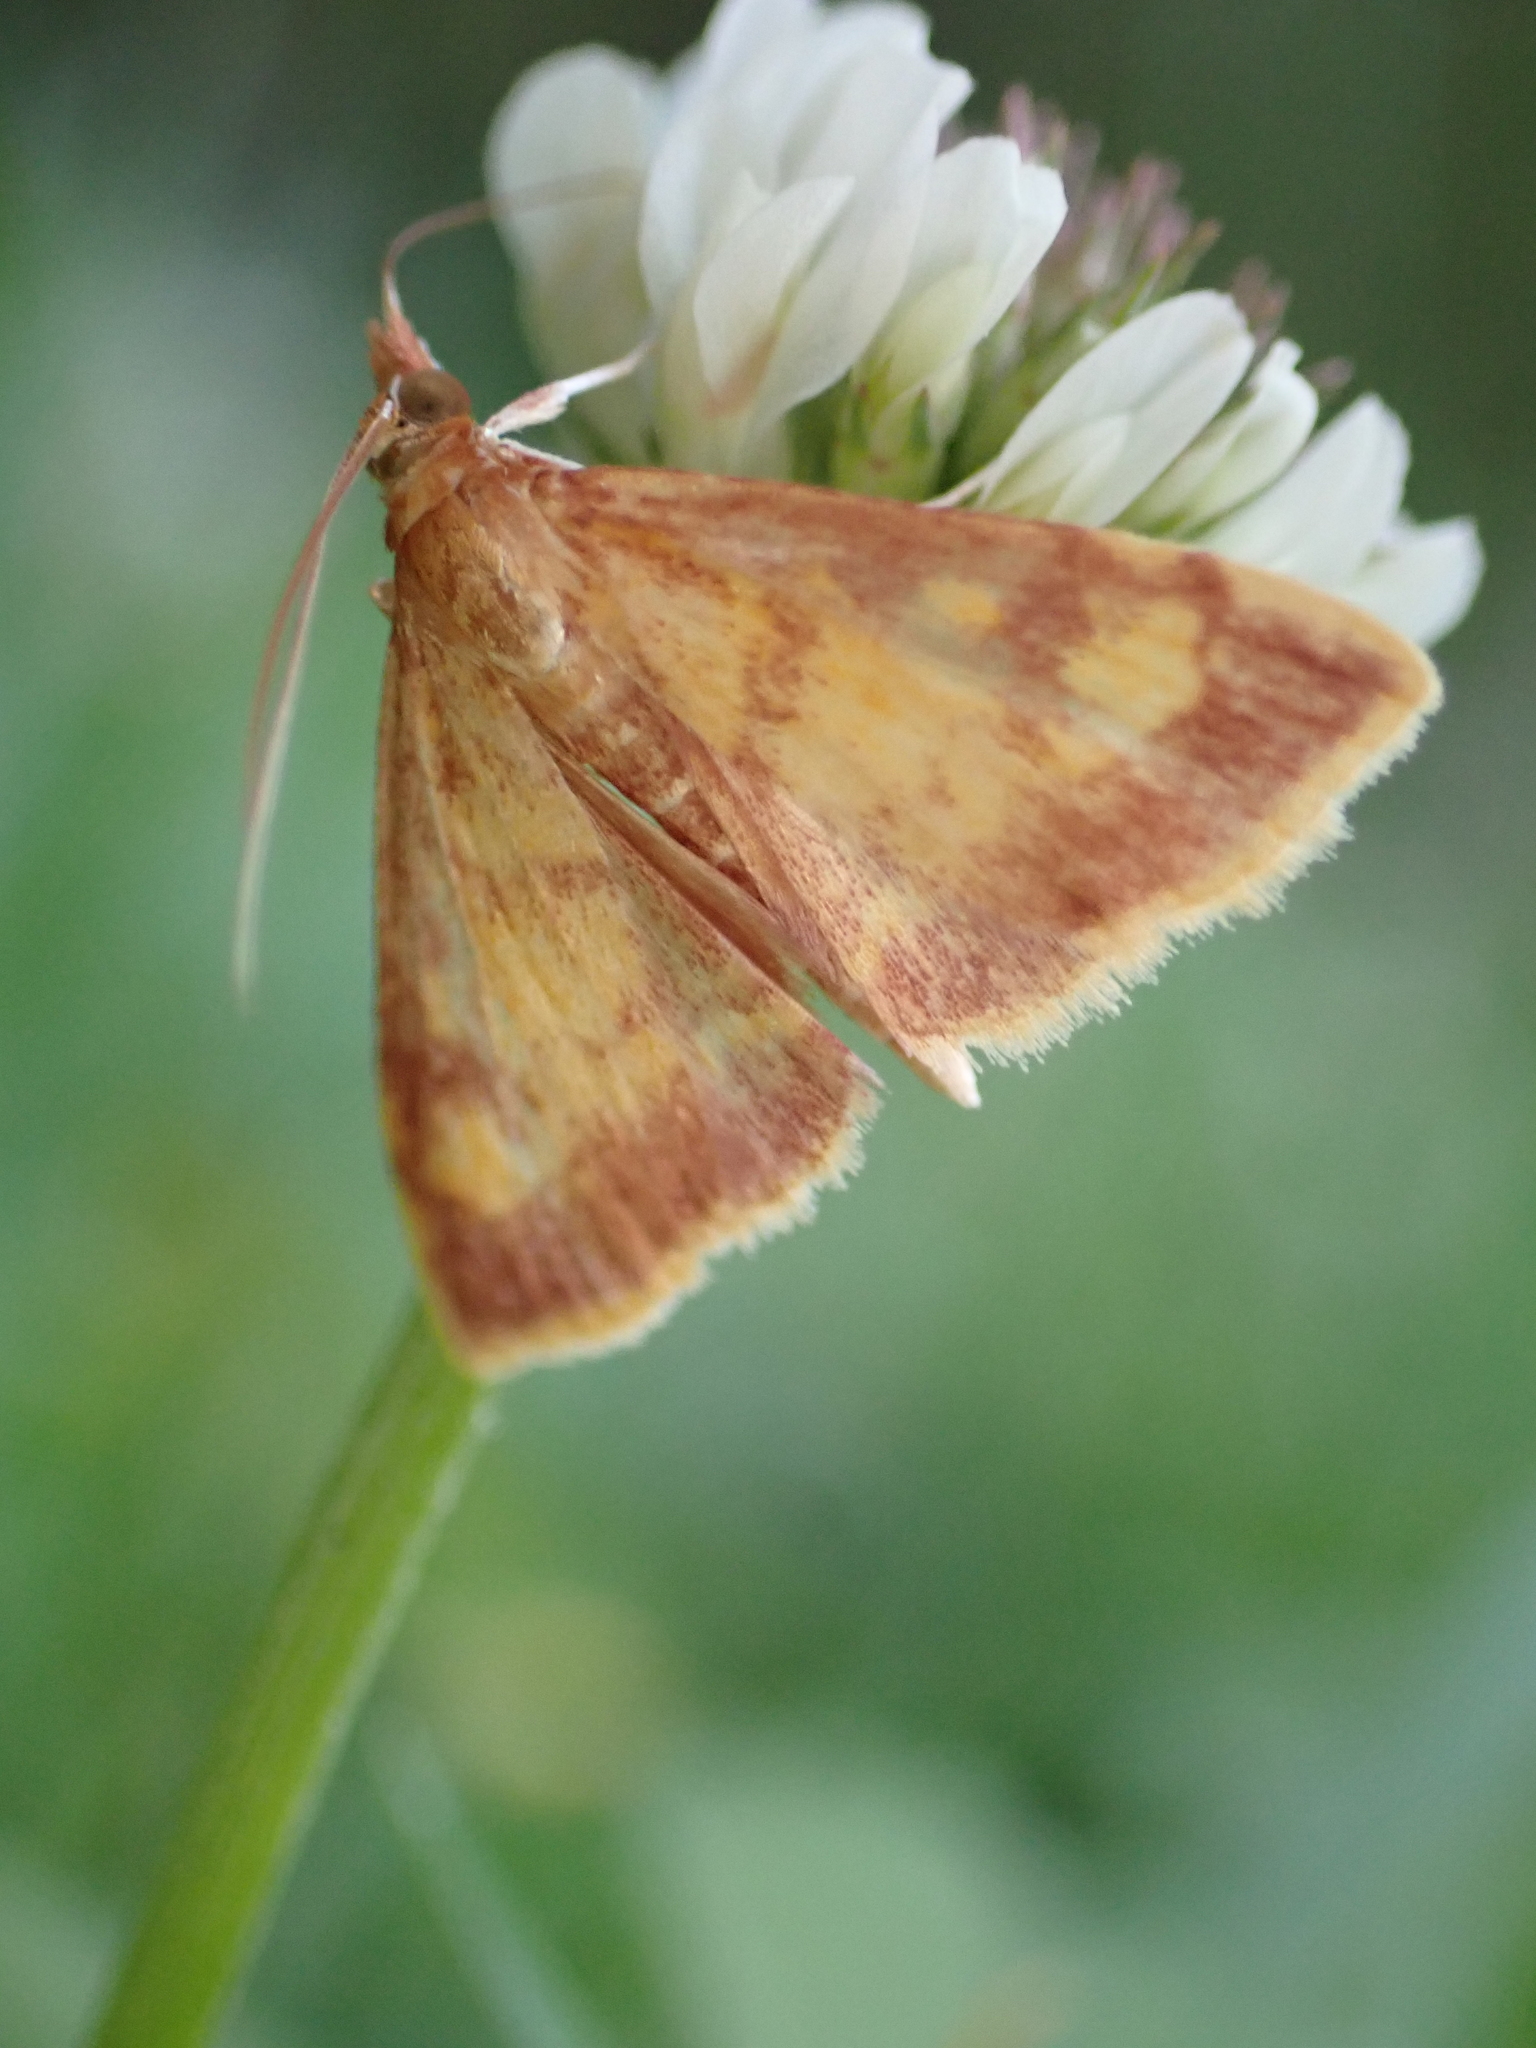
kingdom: Animalia
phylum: Arthropoda
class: Insecta
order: Lepidoptera
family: Crambidae
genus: Pyrausta
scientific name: Pyrausta acrionalis
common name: Mint-loving pyrausta moth
